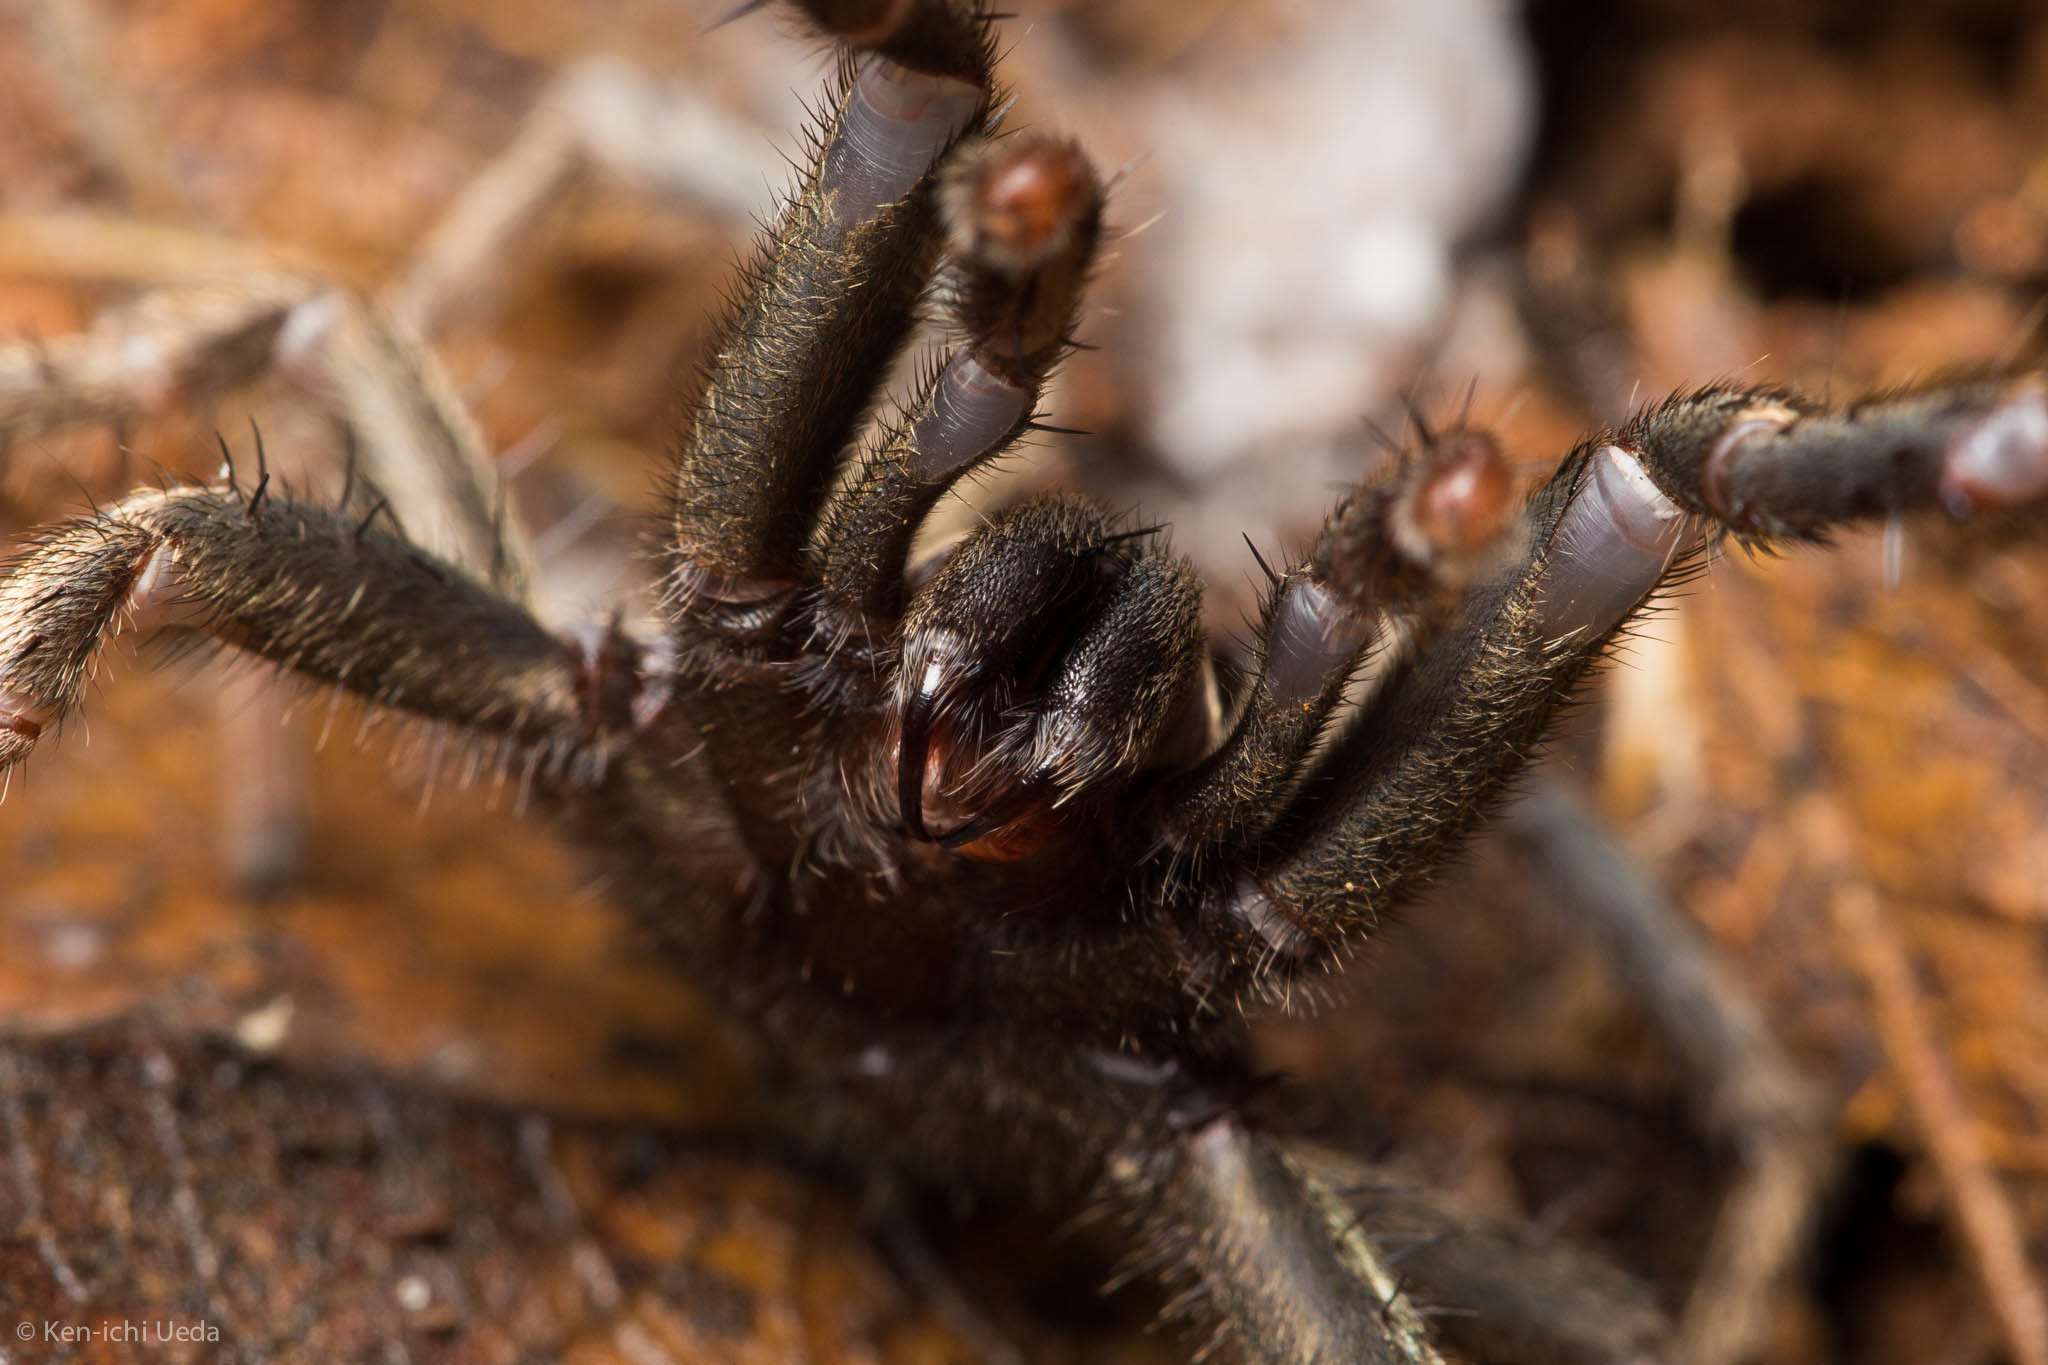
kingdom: Animalia
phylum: Arthropoda
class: Arachnida
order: Araneae
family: Nemesiidae
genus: Calisoga
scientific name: Calisoga longitarsis
